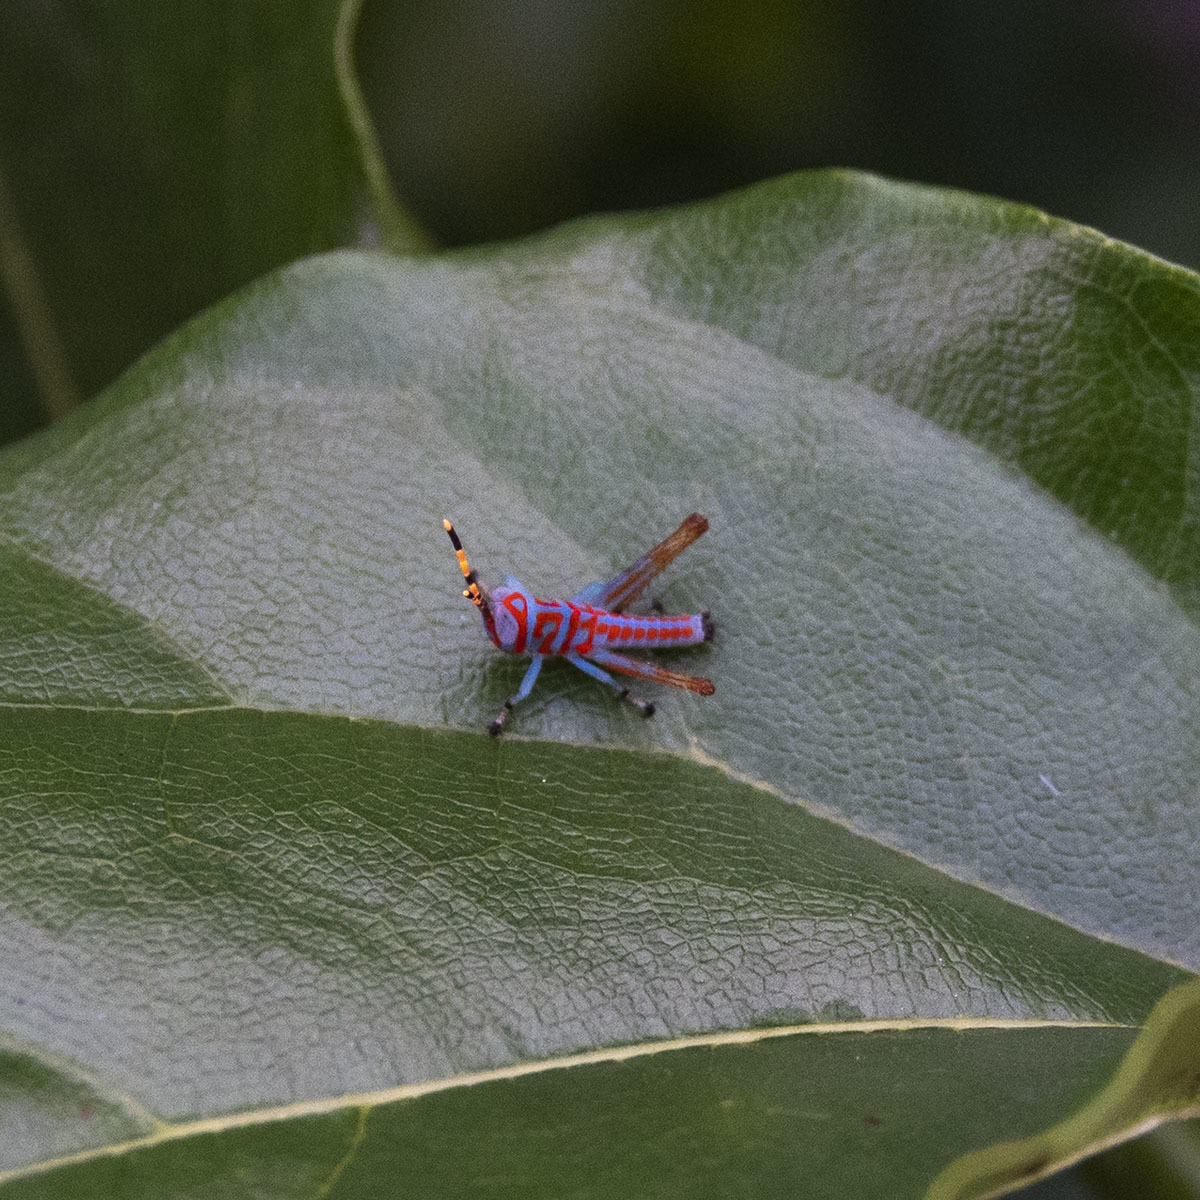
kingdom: Animalia
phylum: Arthropoda
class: Insecta
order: Orthoptera
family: Acrididae
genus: Pirithoicus
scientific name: Pirithoicus ophthalmicus
